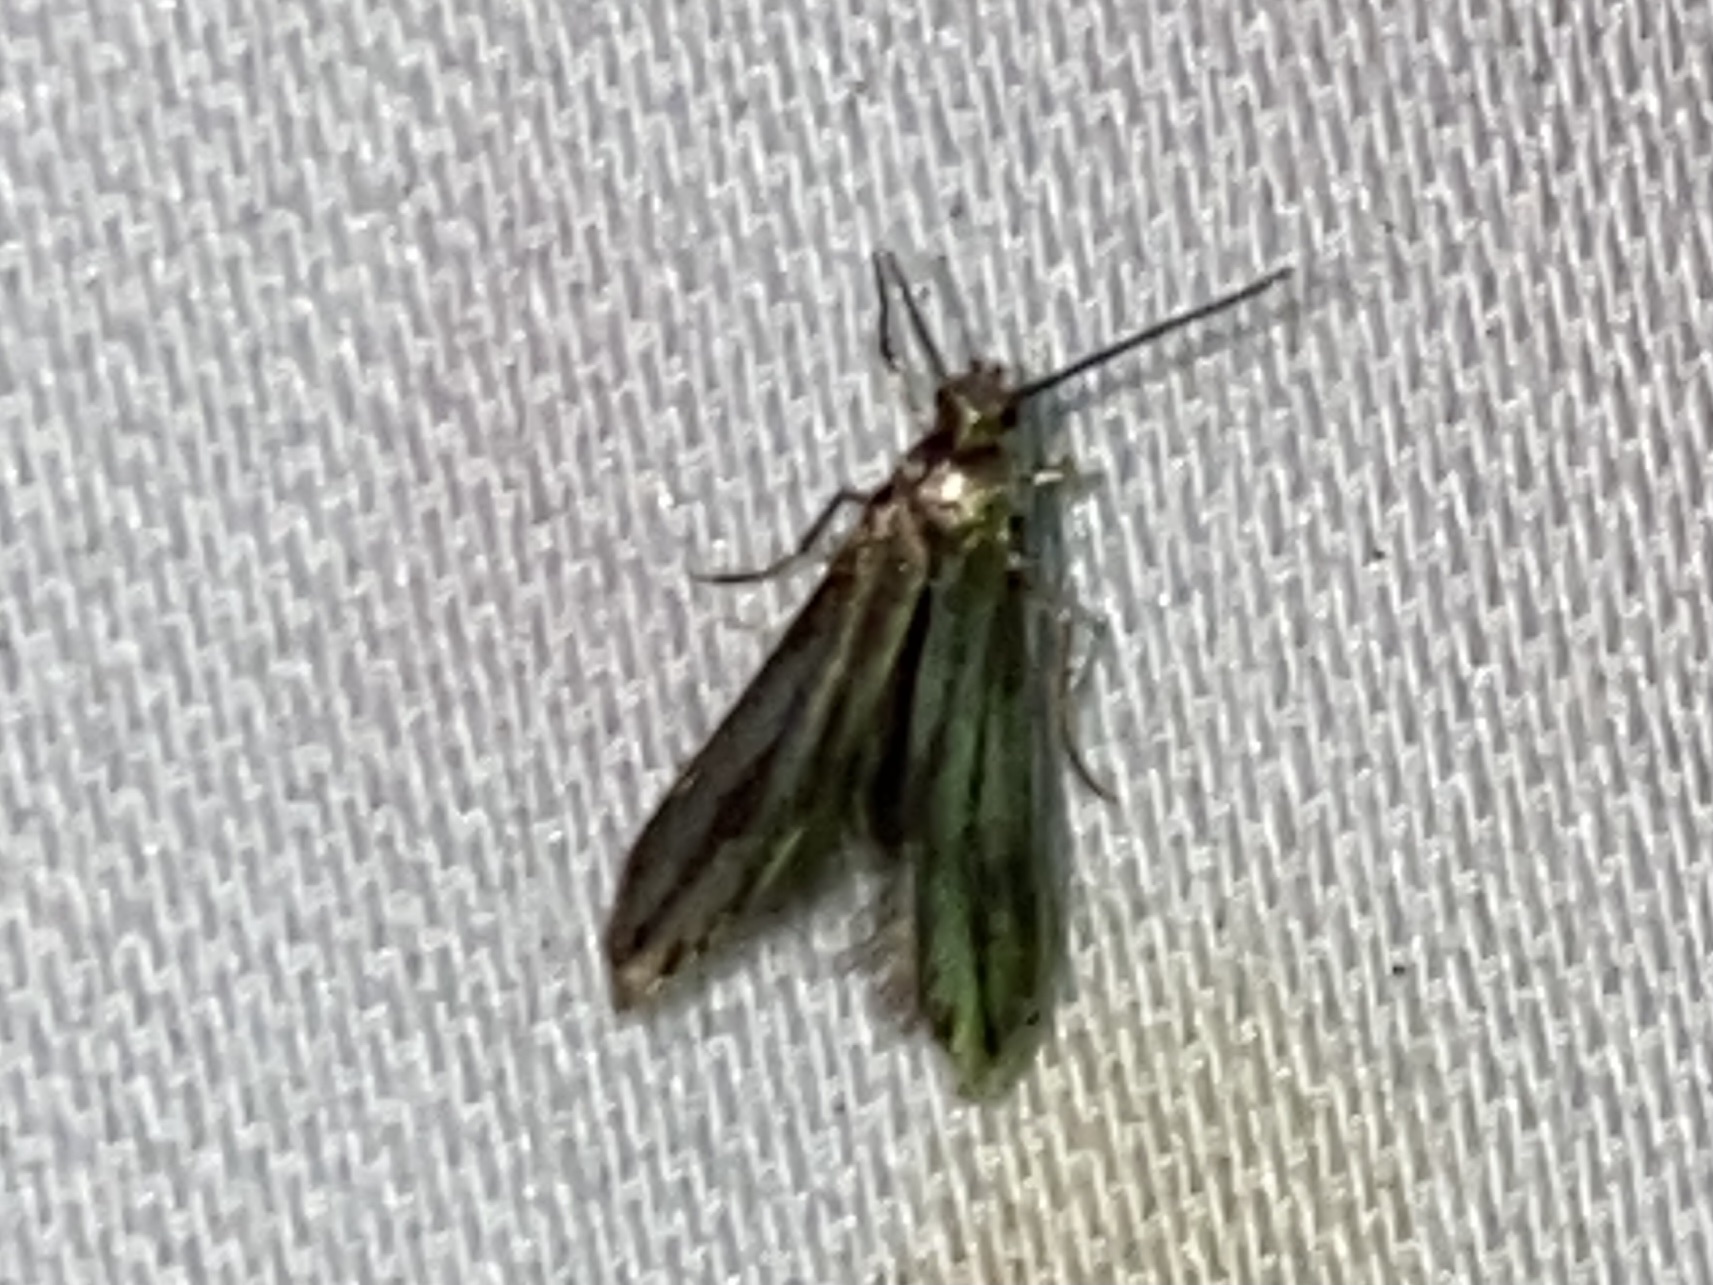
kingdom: Animalia
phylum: Arthropoda
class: Insecta
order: Lepidoptera
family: Schreckensteiniidae
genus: Schreckensteinia
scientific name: Schreckensteinia festaliella
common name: Blackberry skeletonizer
